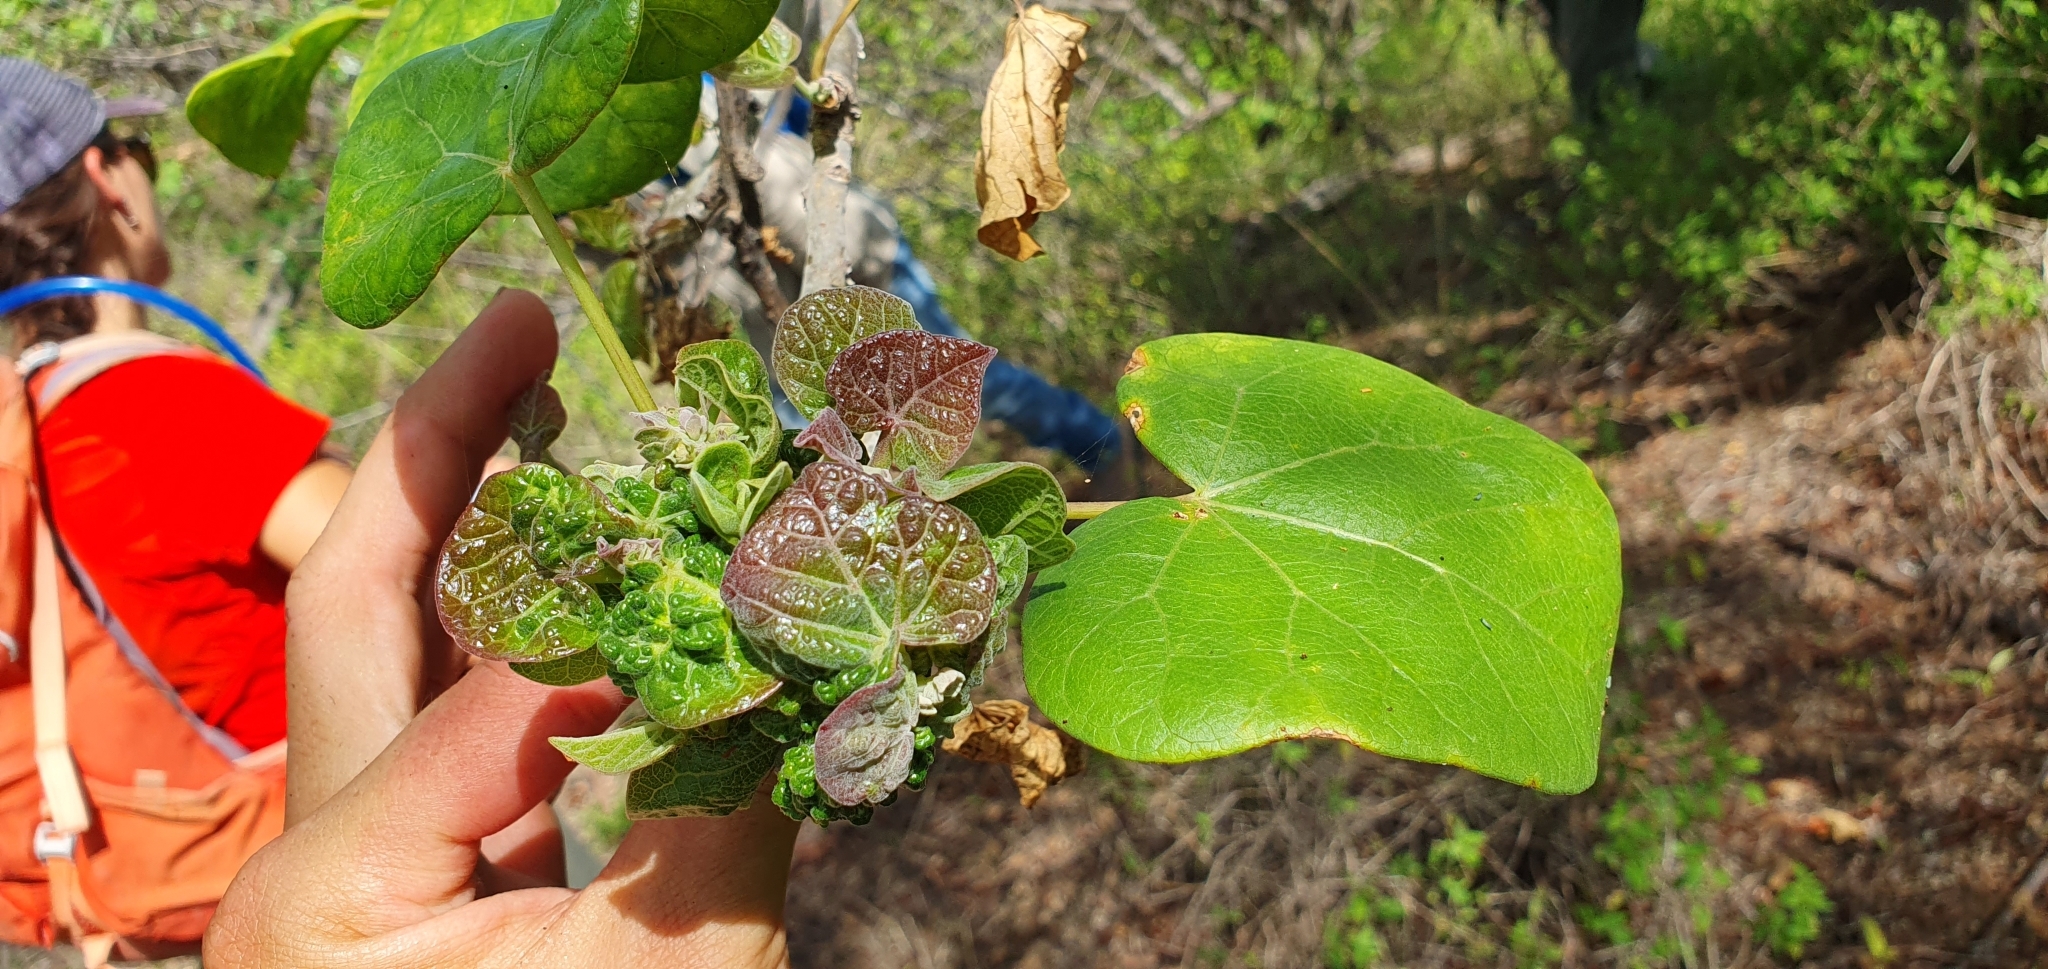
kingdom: Plantae
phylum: Tracheophyta
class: Magnoliopsida
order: Malpighiales
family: Euphorbiaceae
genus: Jatropha
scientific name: Jatropha cinerea
